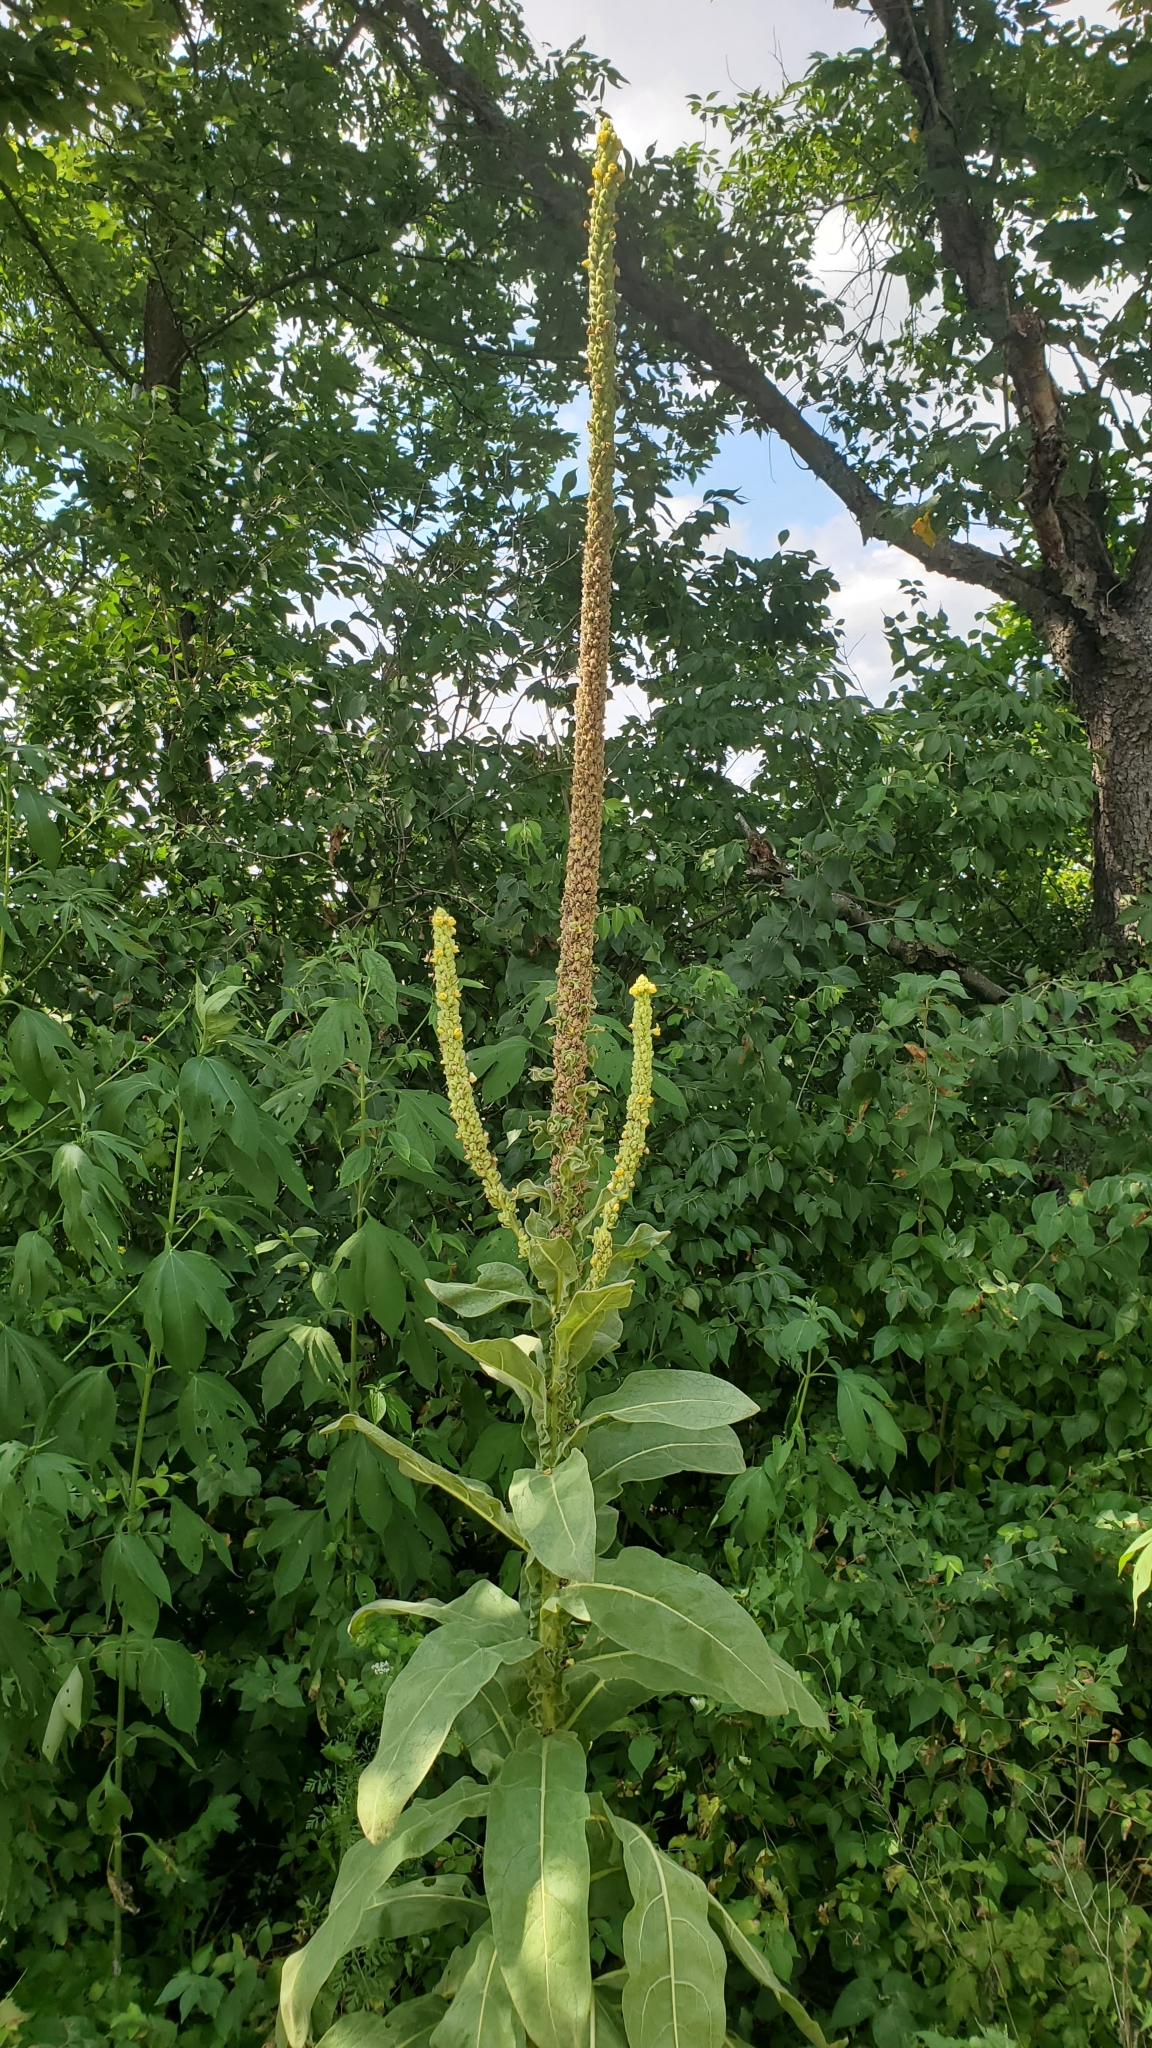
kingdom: Plantae
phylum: Tracheophyta
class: Magnoliopsida
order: Lamiales
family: Scrophulariaceae
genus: Verbascum
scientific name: Verbascum thapsus
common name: Common mullein
